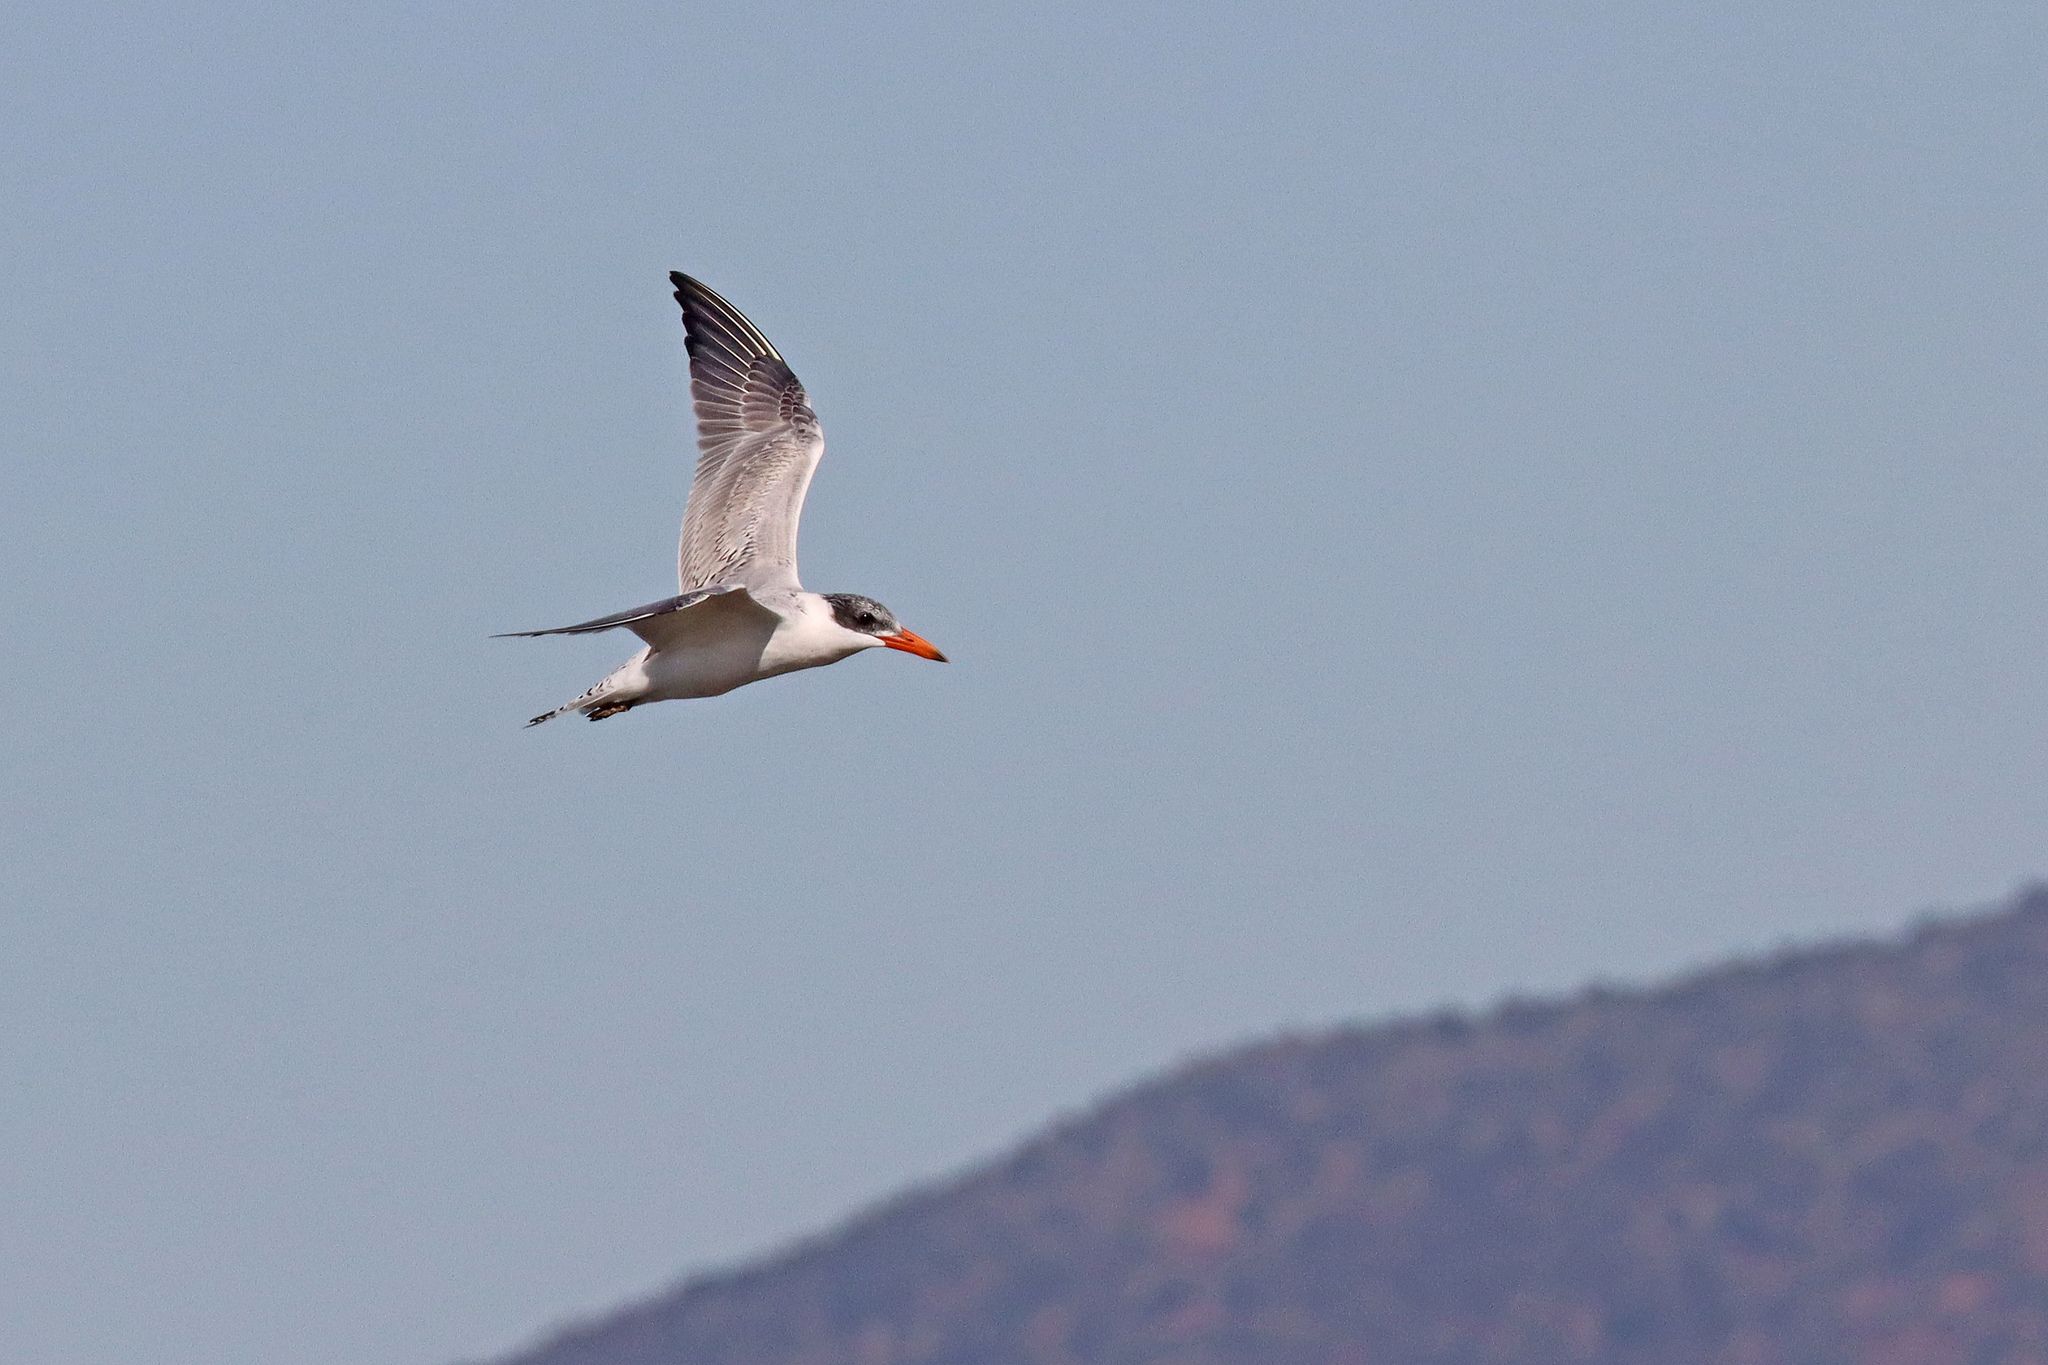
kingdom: Animalia
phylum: Chordata
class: Aves
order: Charadriiformes
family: Laridae
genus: Hydroprogne
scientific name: Hydroprogne caspia
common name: Caspian tern
